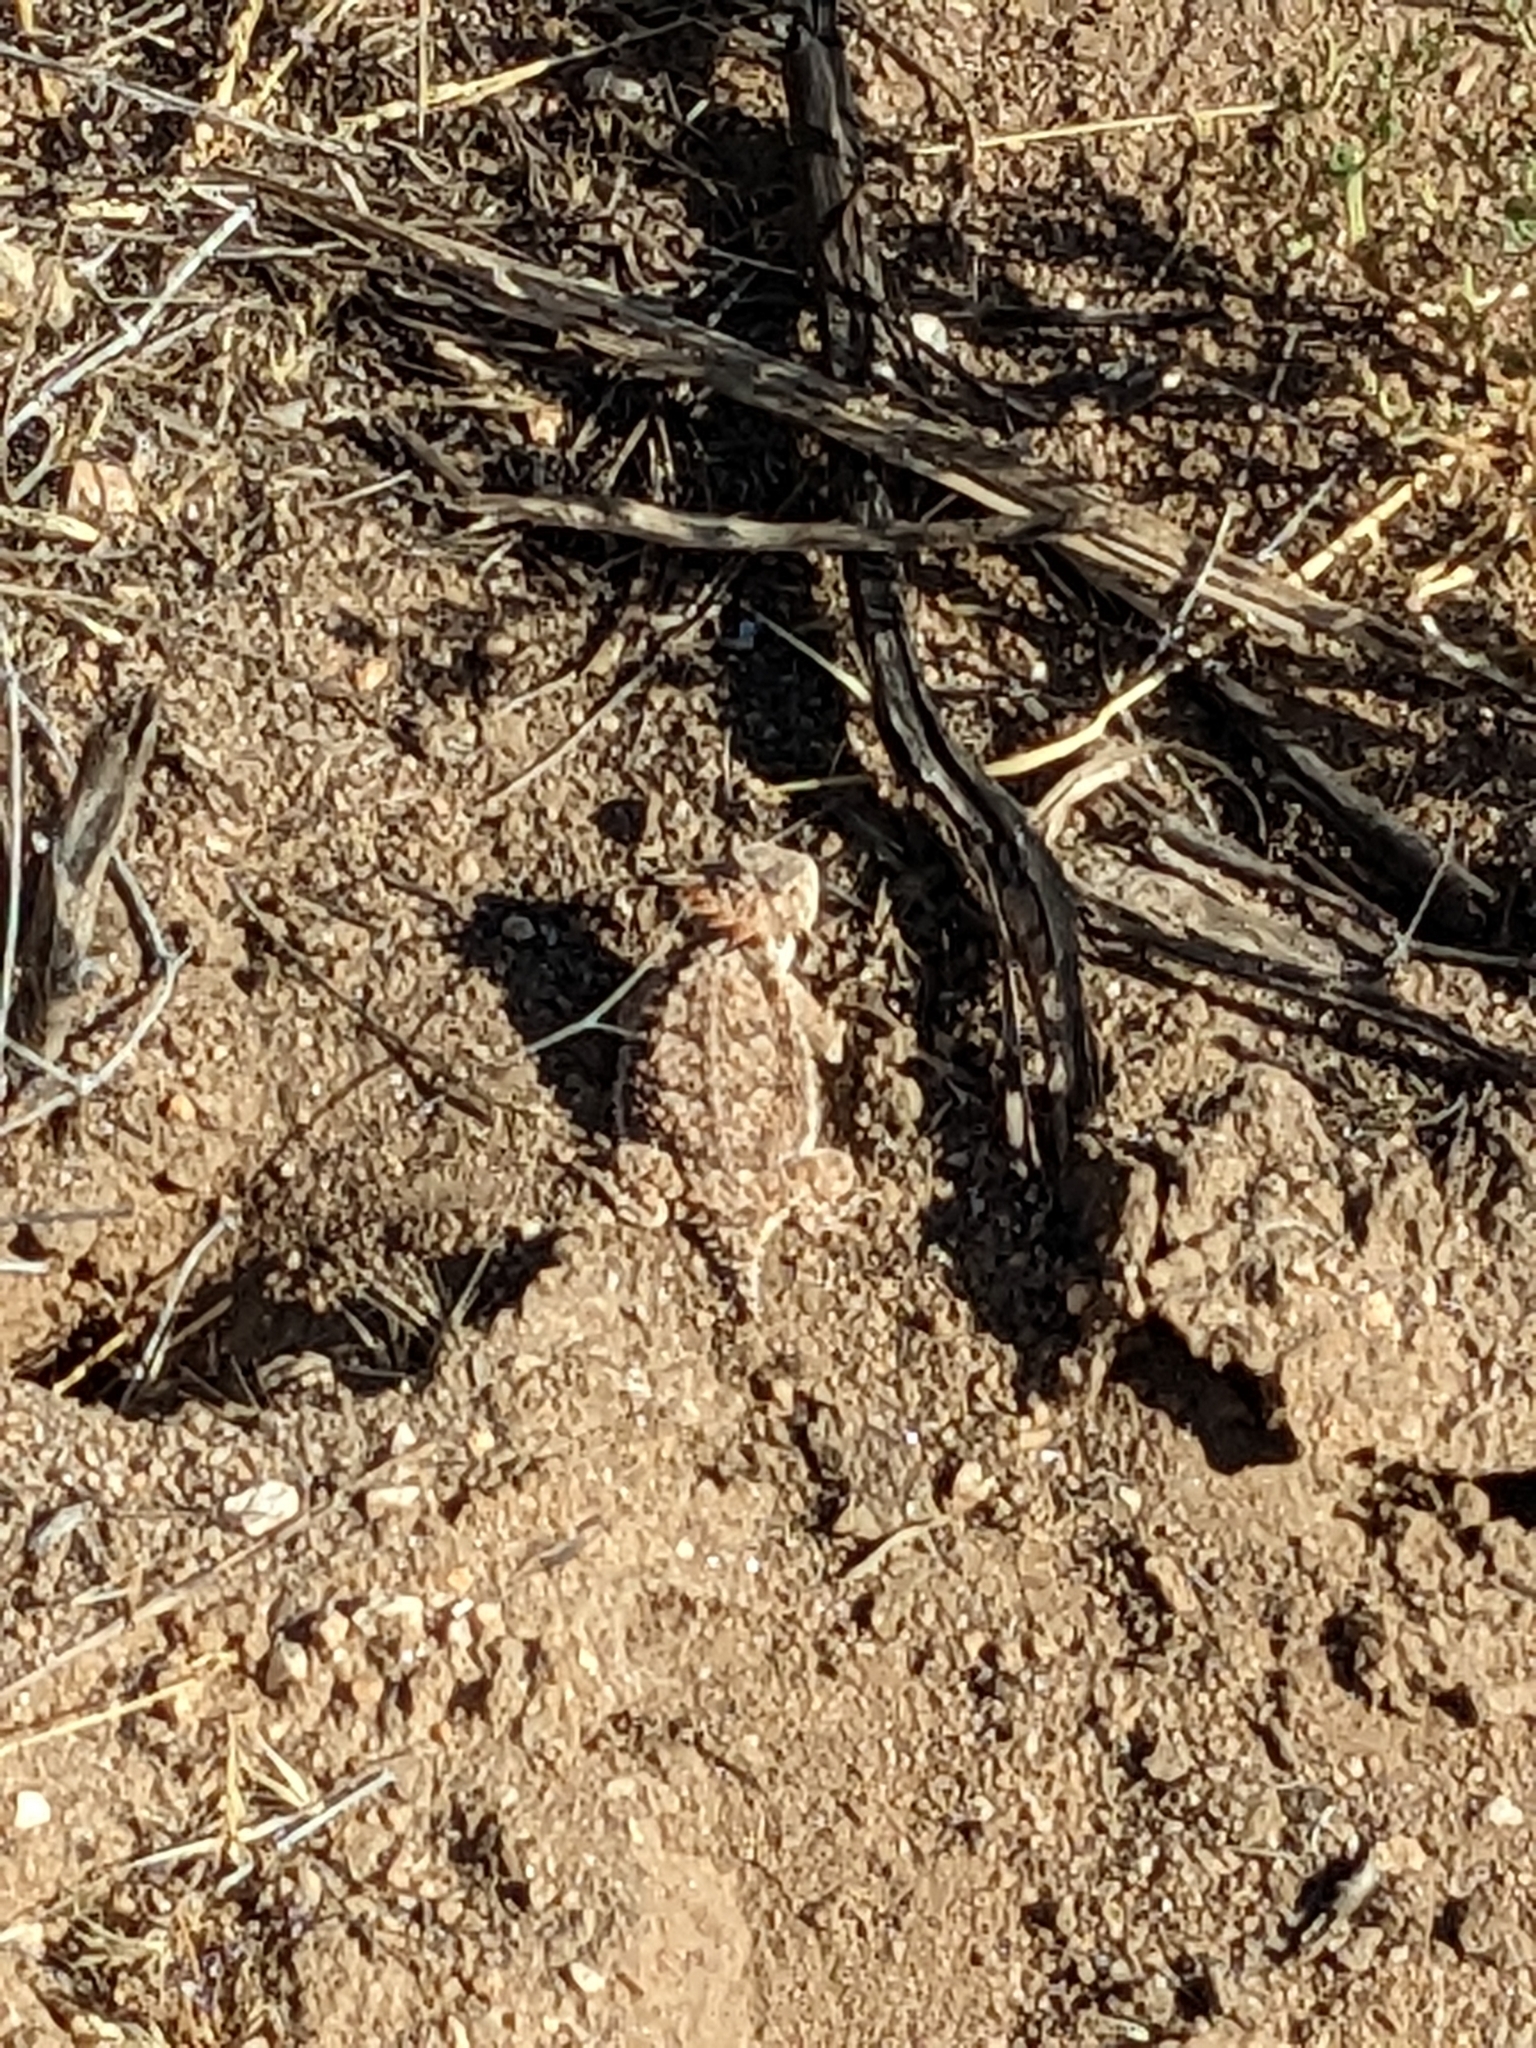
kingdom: Animalia
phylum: Chordata
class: Squamata
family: Phrynosomatidae
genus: Phrynosoma
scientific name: Phrynosoma solare
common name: Regal horned lizard
